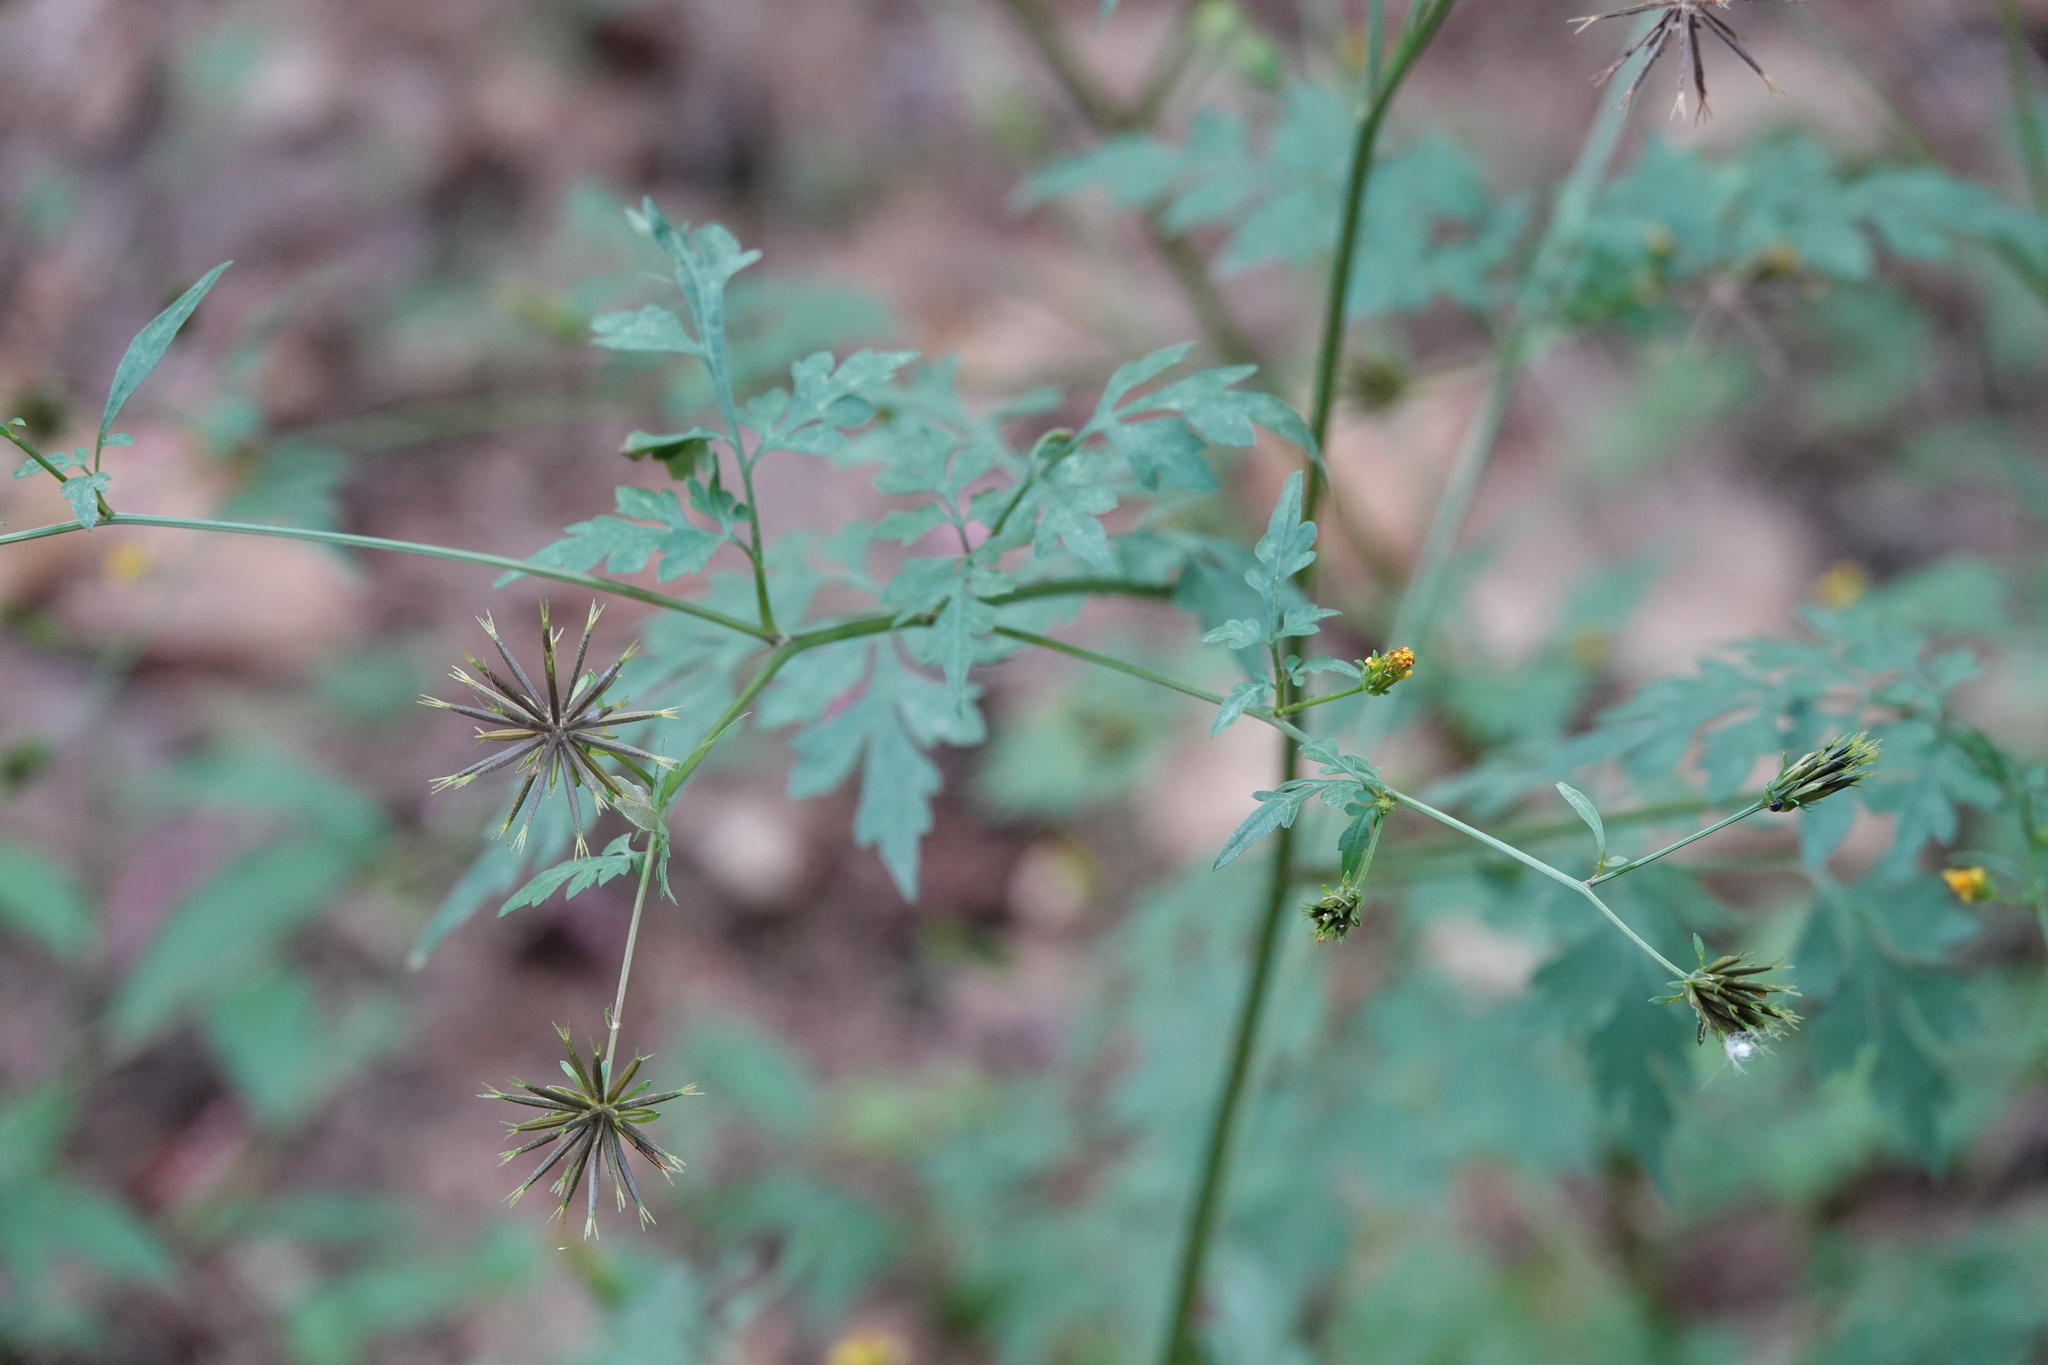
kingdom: Plantae
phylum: Tracheophyta
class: Magnoliopsida
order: Asterales
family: Asteraceae
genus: Bidens
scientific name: Bidens bipinnata
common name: Spanish-needles
